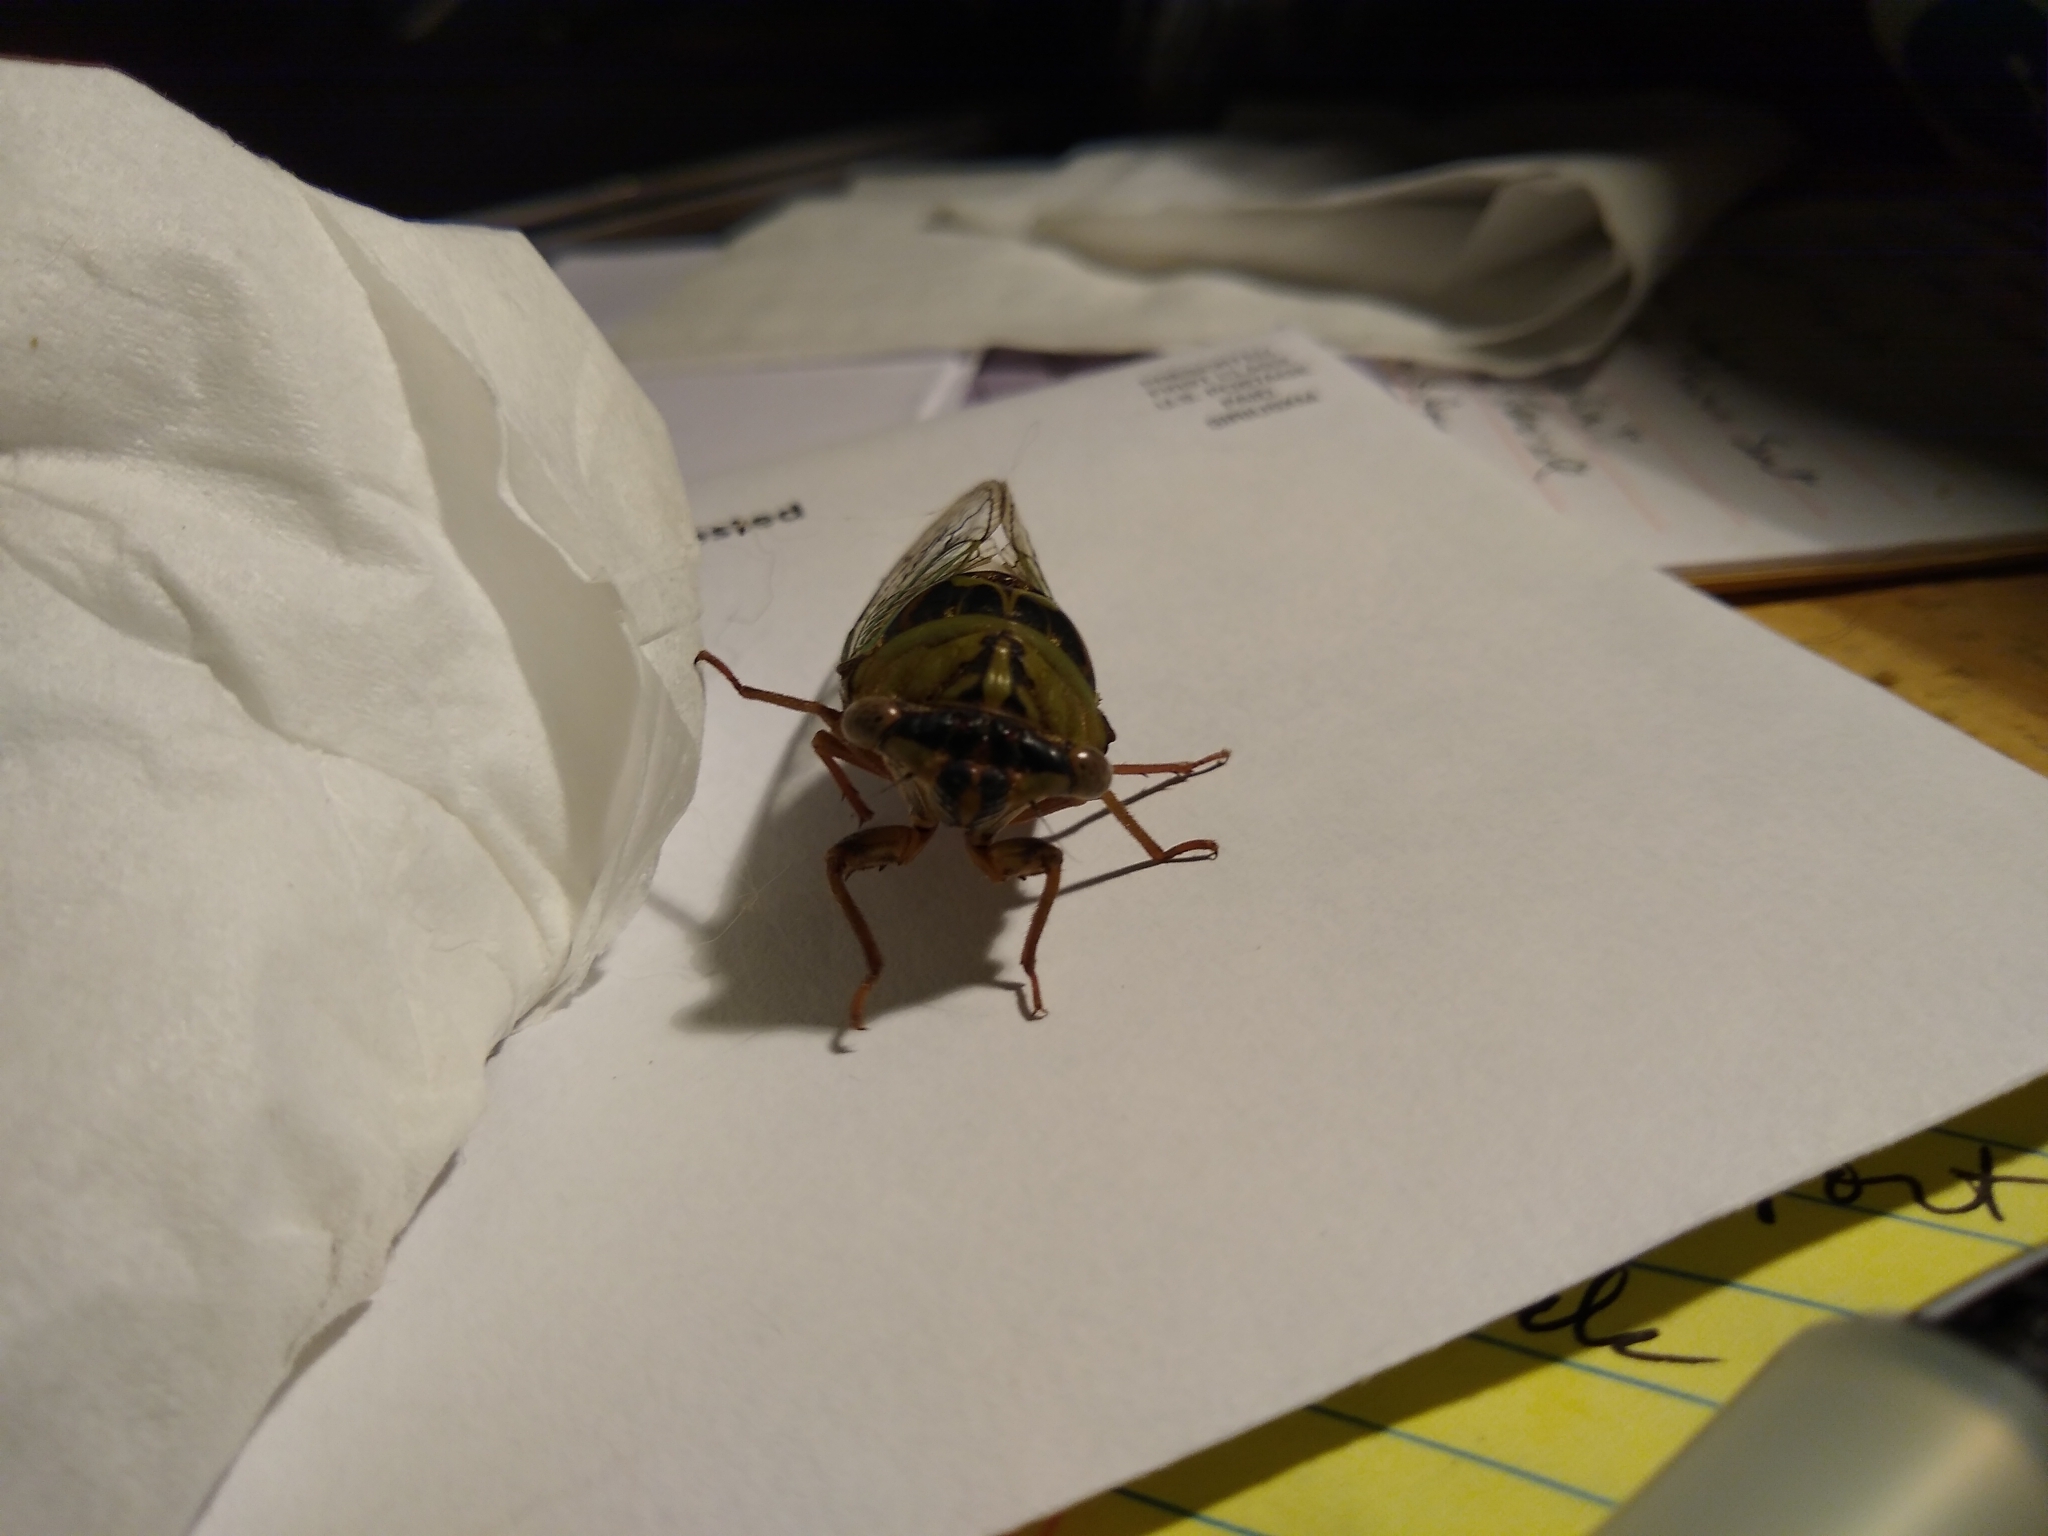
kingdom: Animalia
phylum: Arthropoda
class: Insecta
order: Hemiptera
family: Cicadidae
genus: Megatibicen
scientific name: Megatibicen resh
